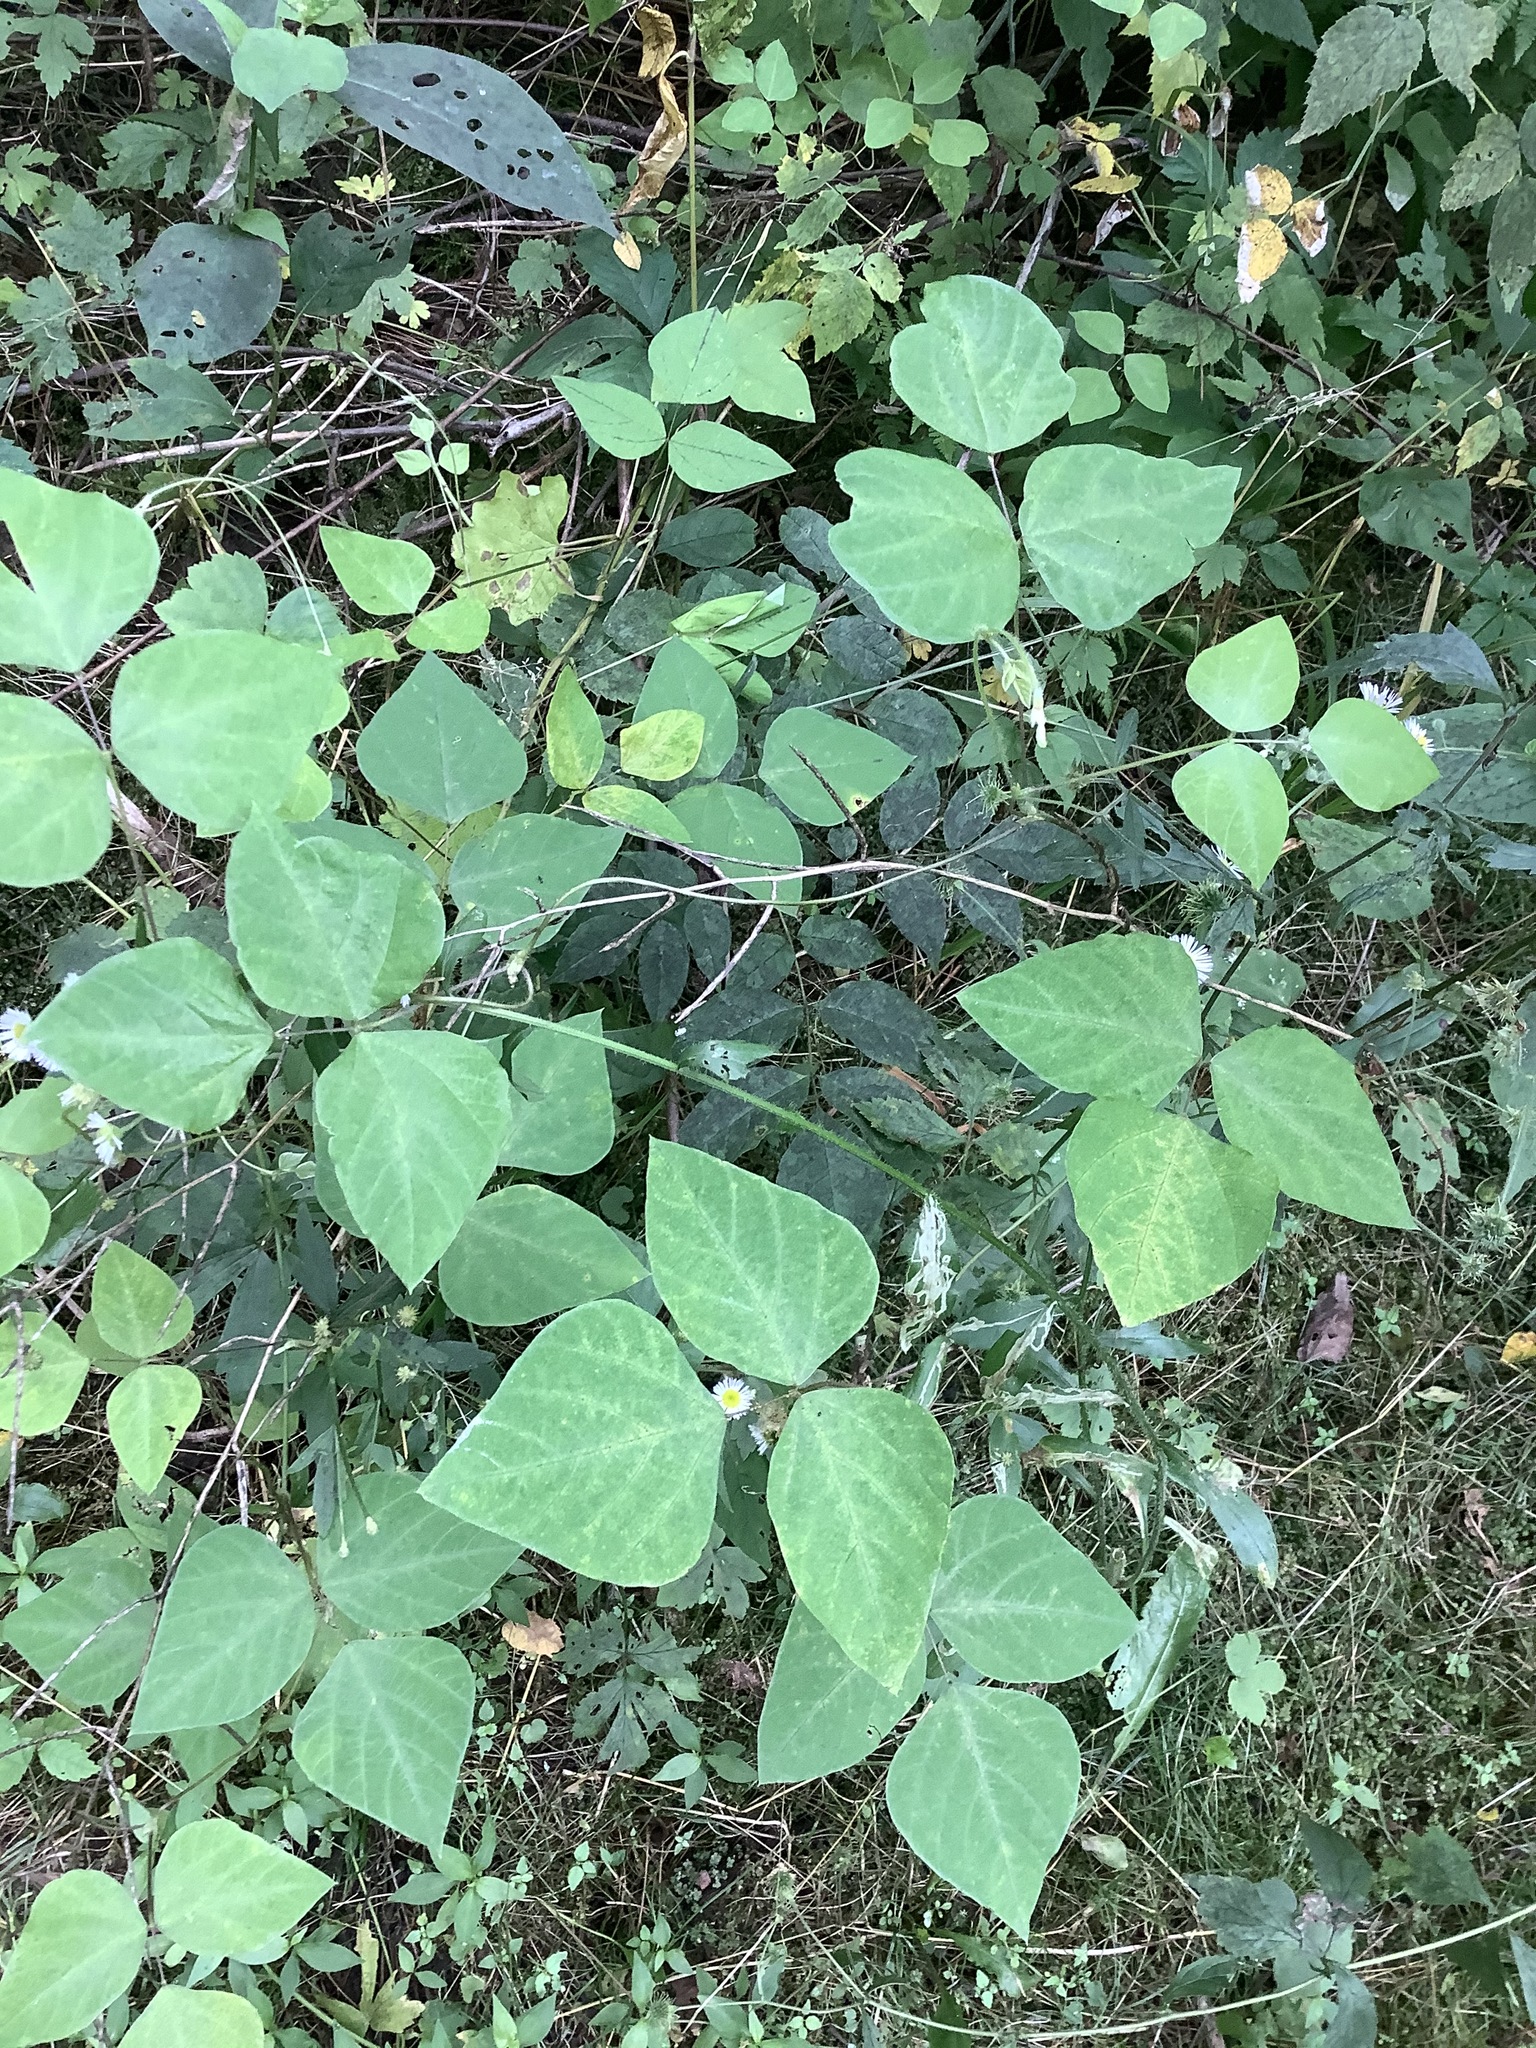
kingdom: Plantae
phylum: Tracheophyta
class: Magnoliopsida
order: Fabales
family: Fabaceae
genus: Amphicarpaea
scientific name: Amphicarpaea bracteata
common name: American hog peanut
